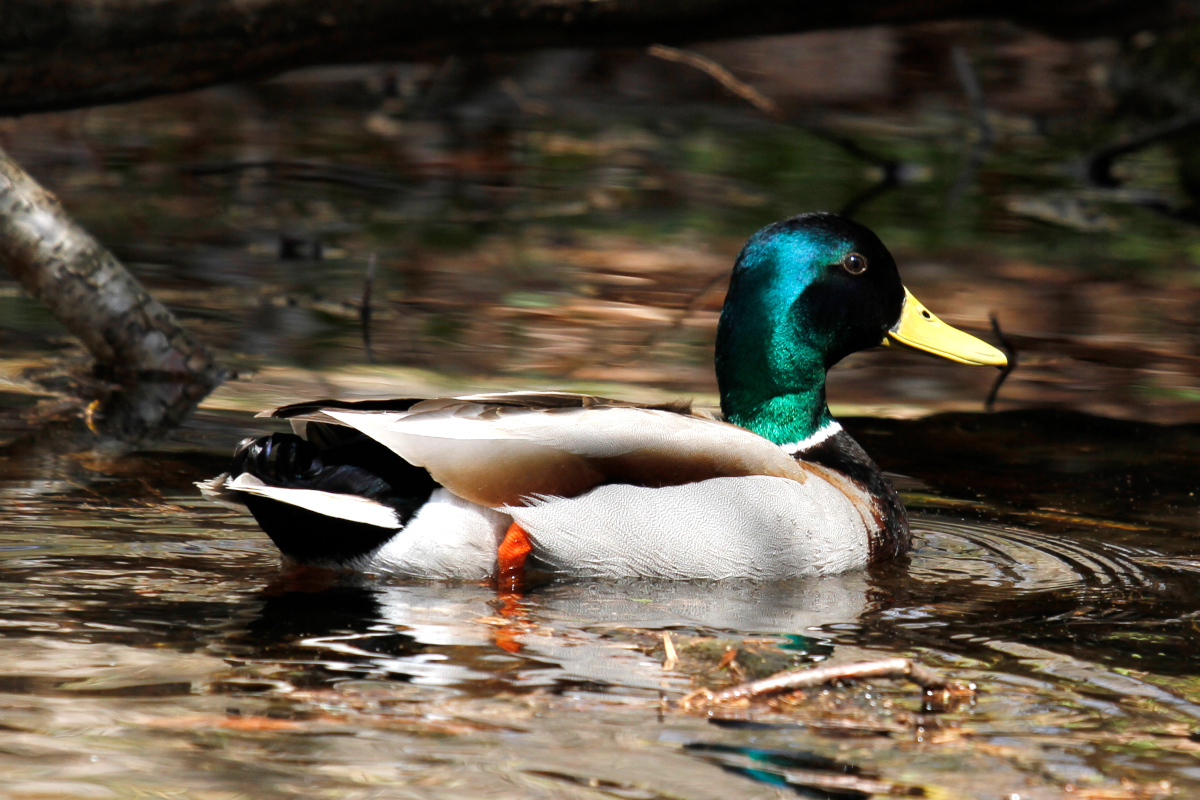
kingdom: Animalia
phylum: Chordata
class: Aves
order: Anseriformes
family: Anatidae
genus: Anas
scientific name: Anas platyrhynchos
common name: Mallard
